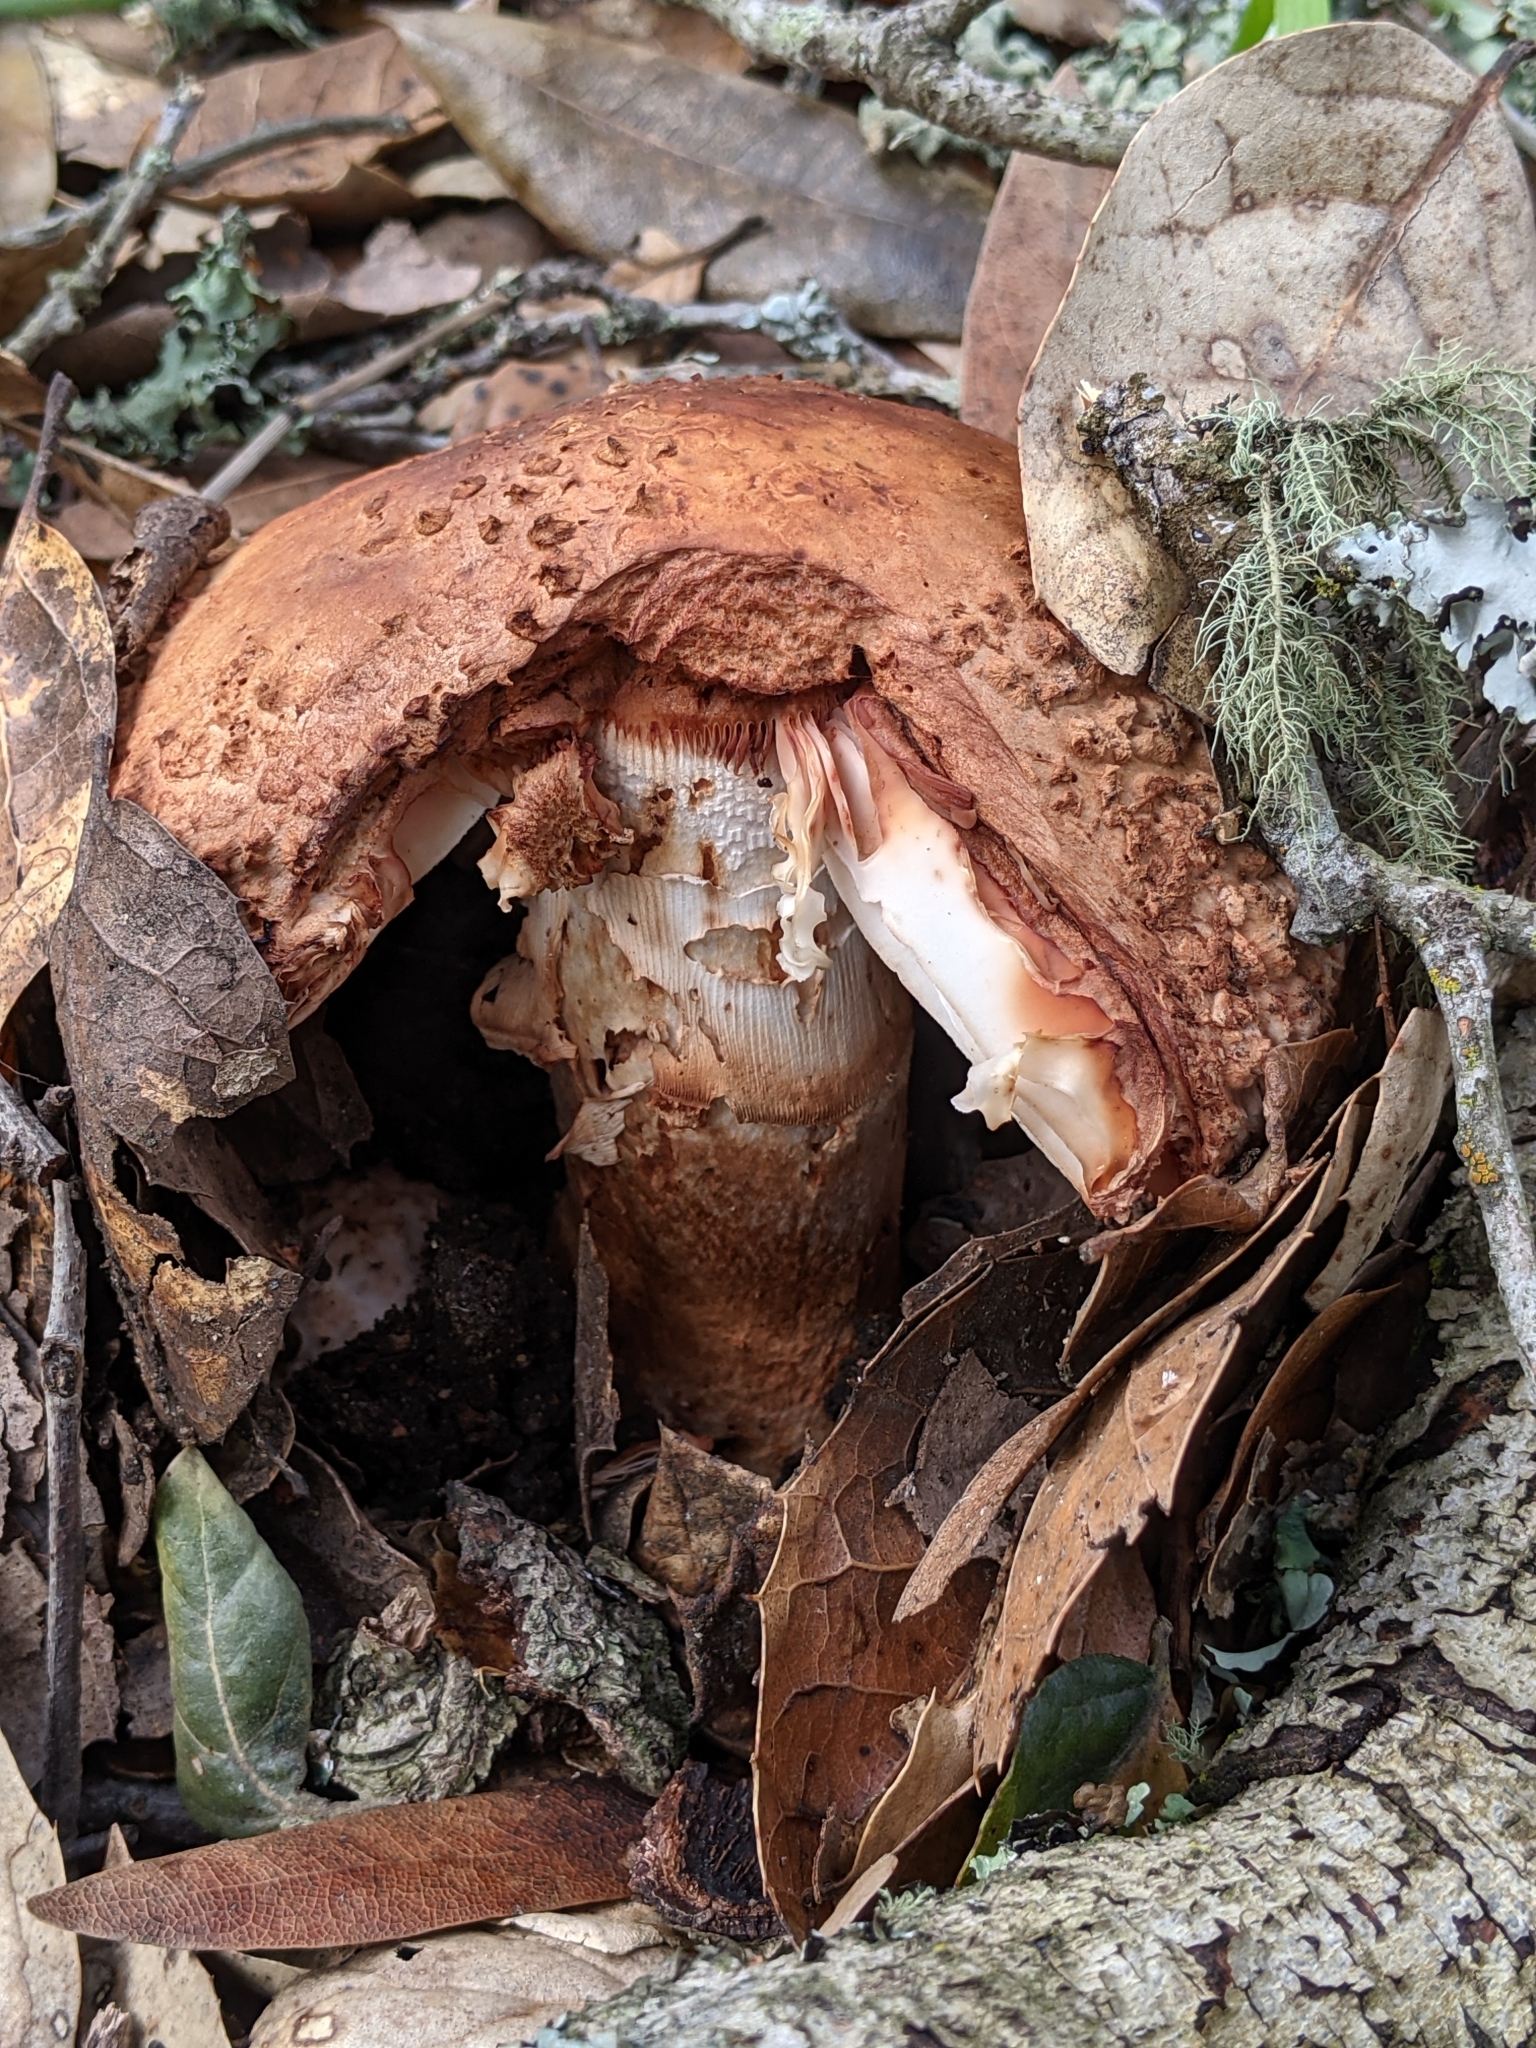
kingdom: Fungi
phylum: Basidiomycota
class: Agaricomycetes
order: Agaricales
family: Amanitaceae
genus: Amanita
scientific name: Amanita novinupta
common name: Blushing bride
